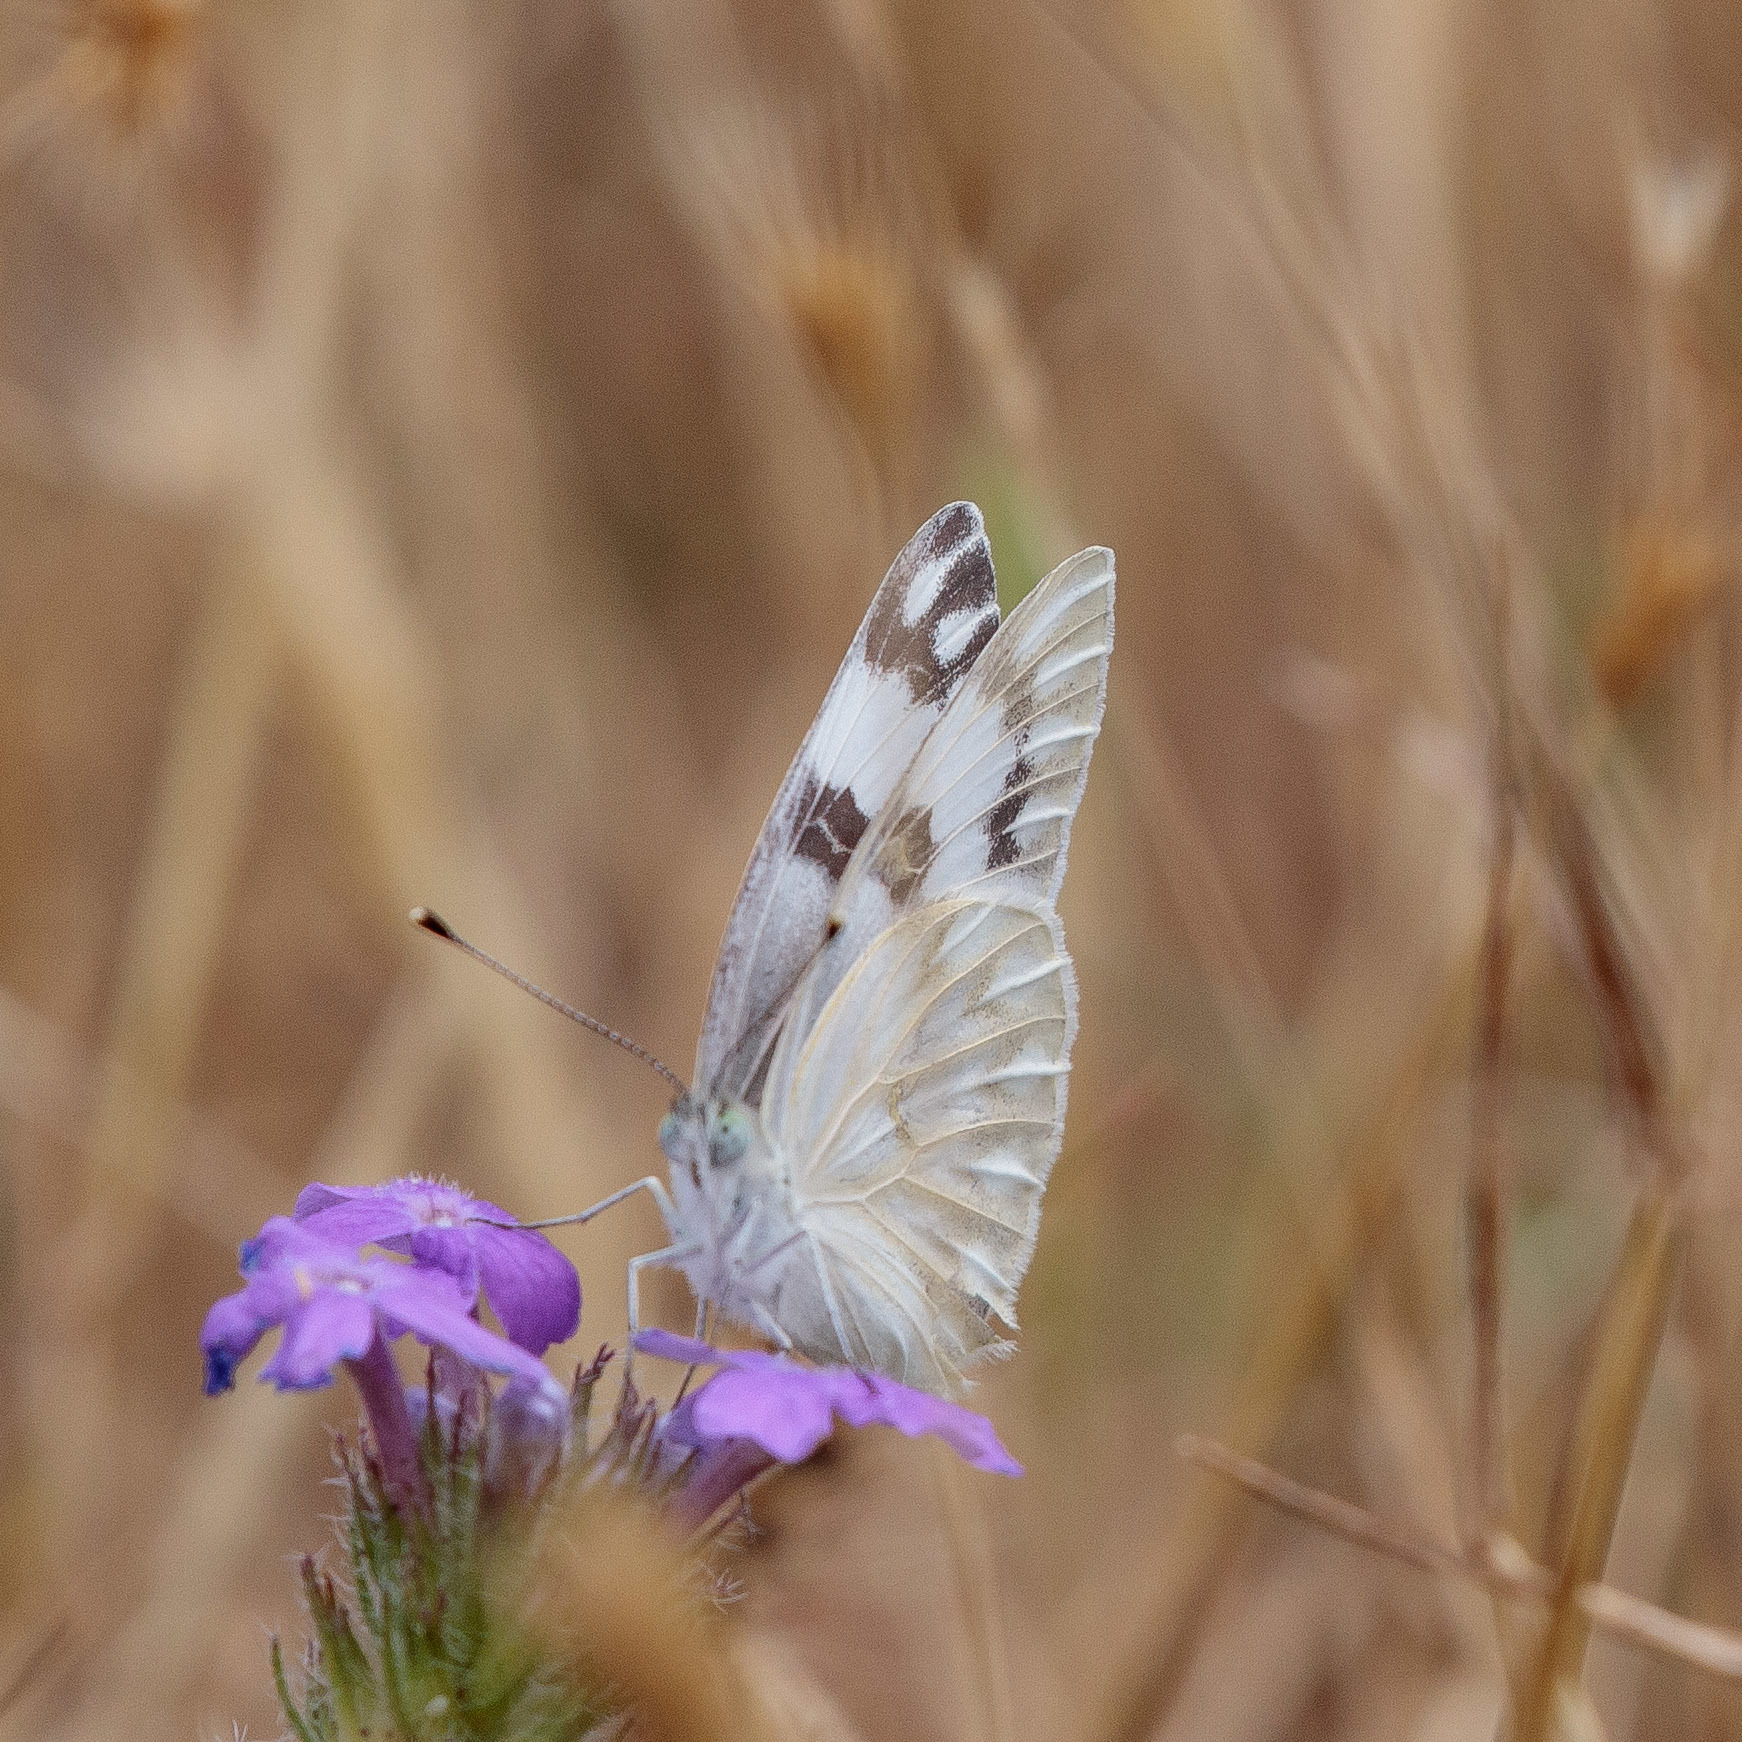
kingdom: Animalia
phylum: Arthropoda
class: Insecta
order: Lepidoptera
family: Pieridae
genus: Pontia
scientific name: Pontia protodice
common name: Checkered white
